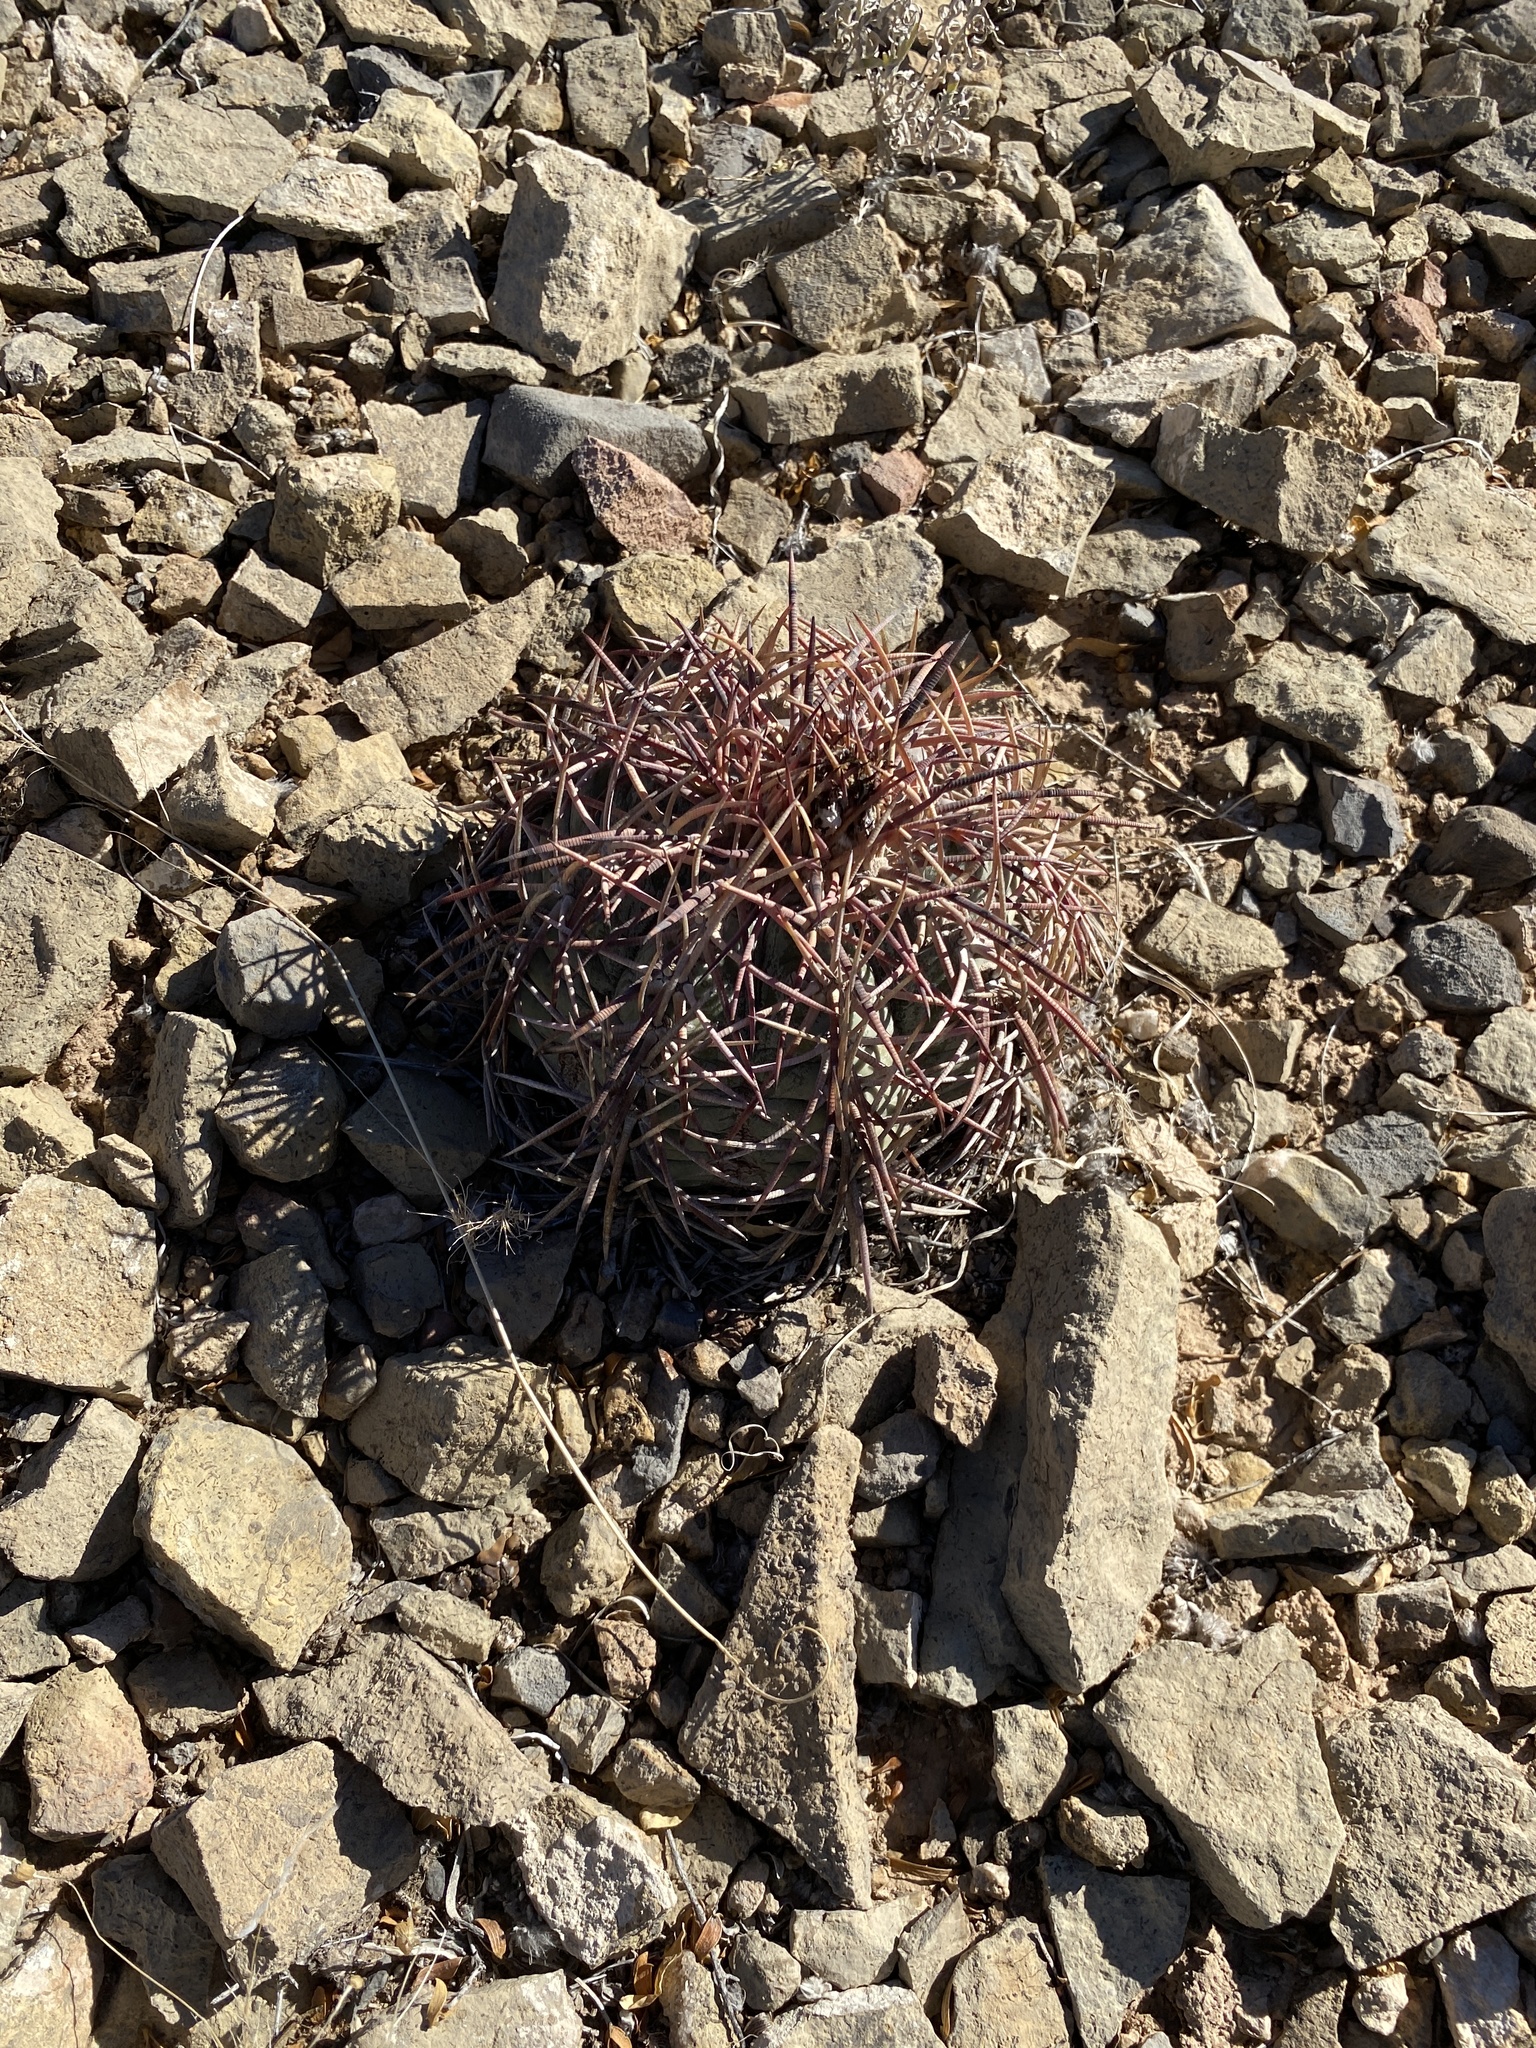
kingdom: Plantae
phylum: Tracheophyta
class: Magnoliopsida
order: Caryophyllales
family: Cactaceae
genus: Echinocactus
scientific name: Echinocactus horizonthalonius
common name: Devilshead
